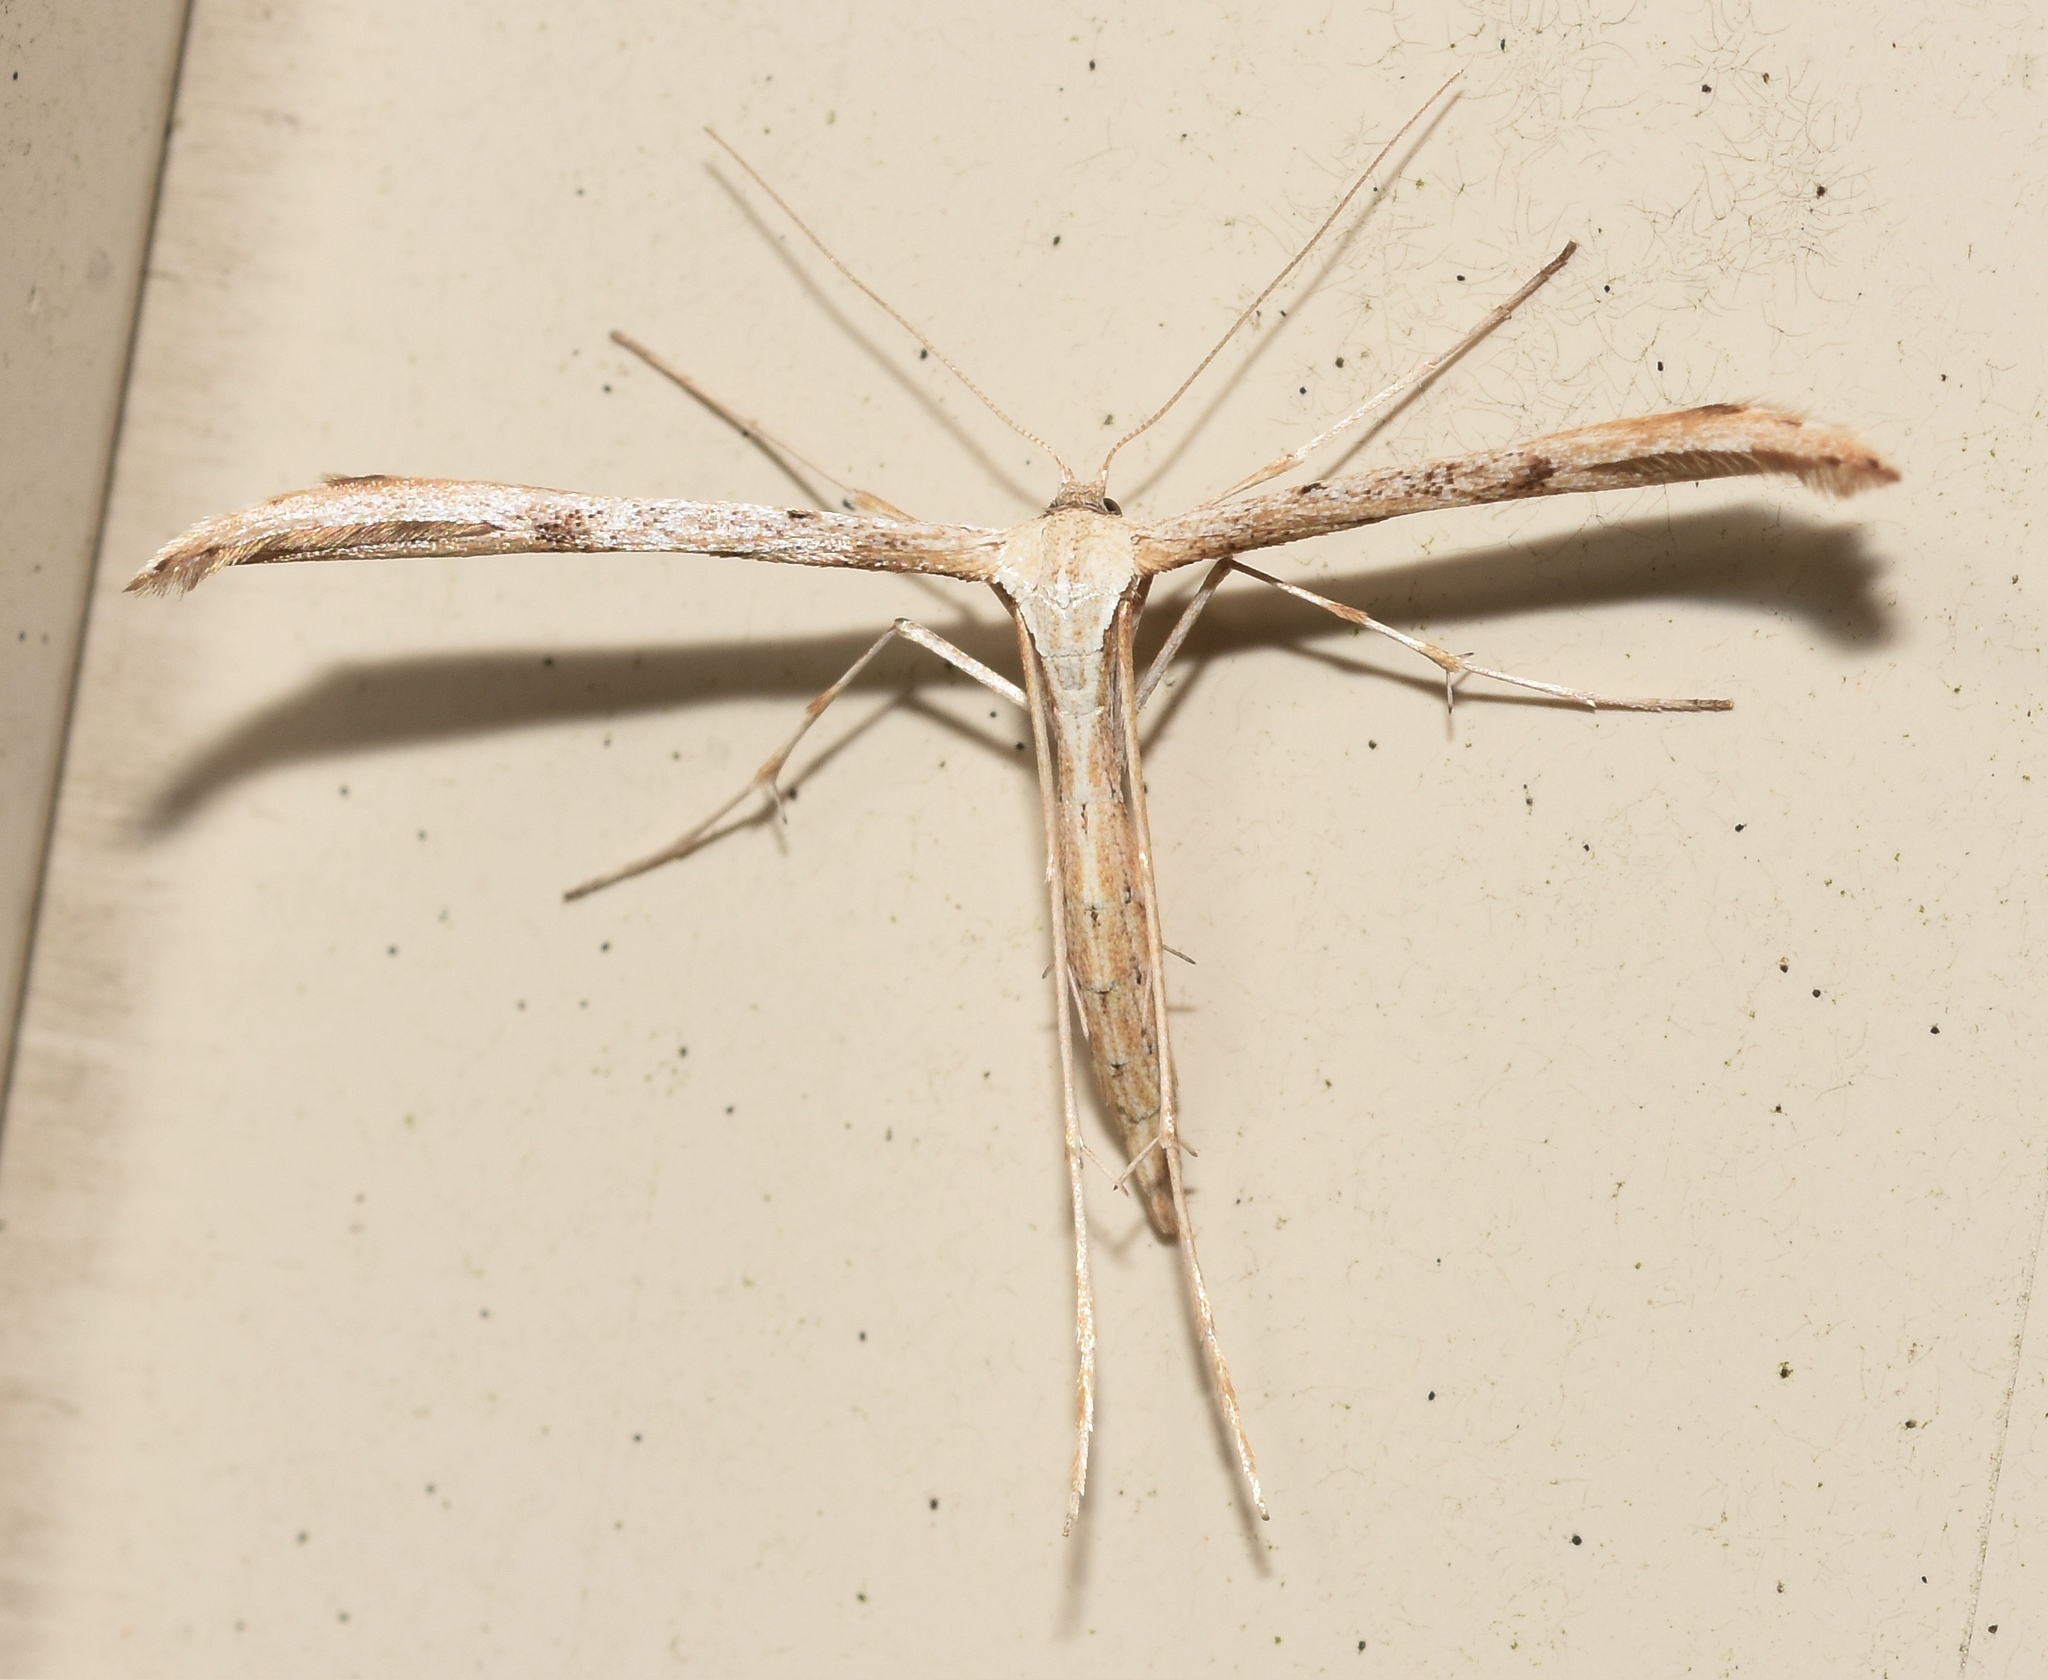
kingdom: Animalia
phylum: Arthropoda
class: Insecta
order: Lepidoptera
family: Pterophoridae
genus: Emmelina
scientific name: Emmelina monodactyla
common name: Common plume
